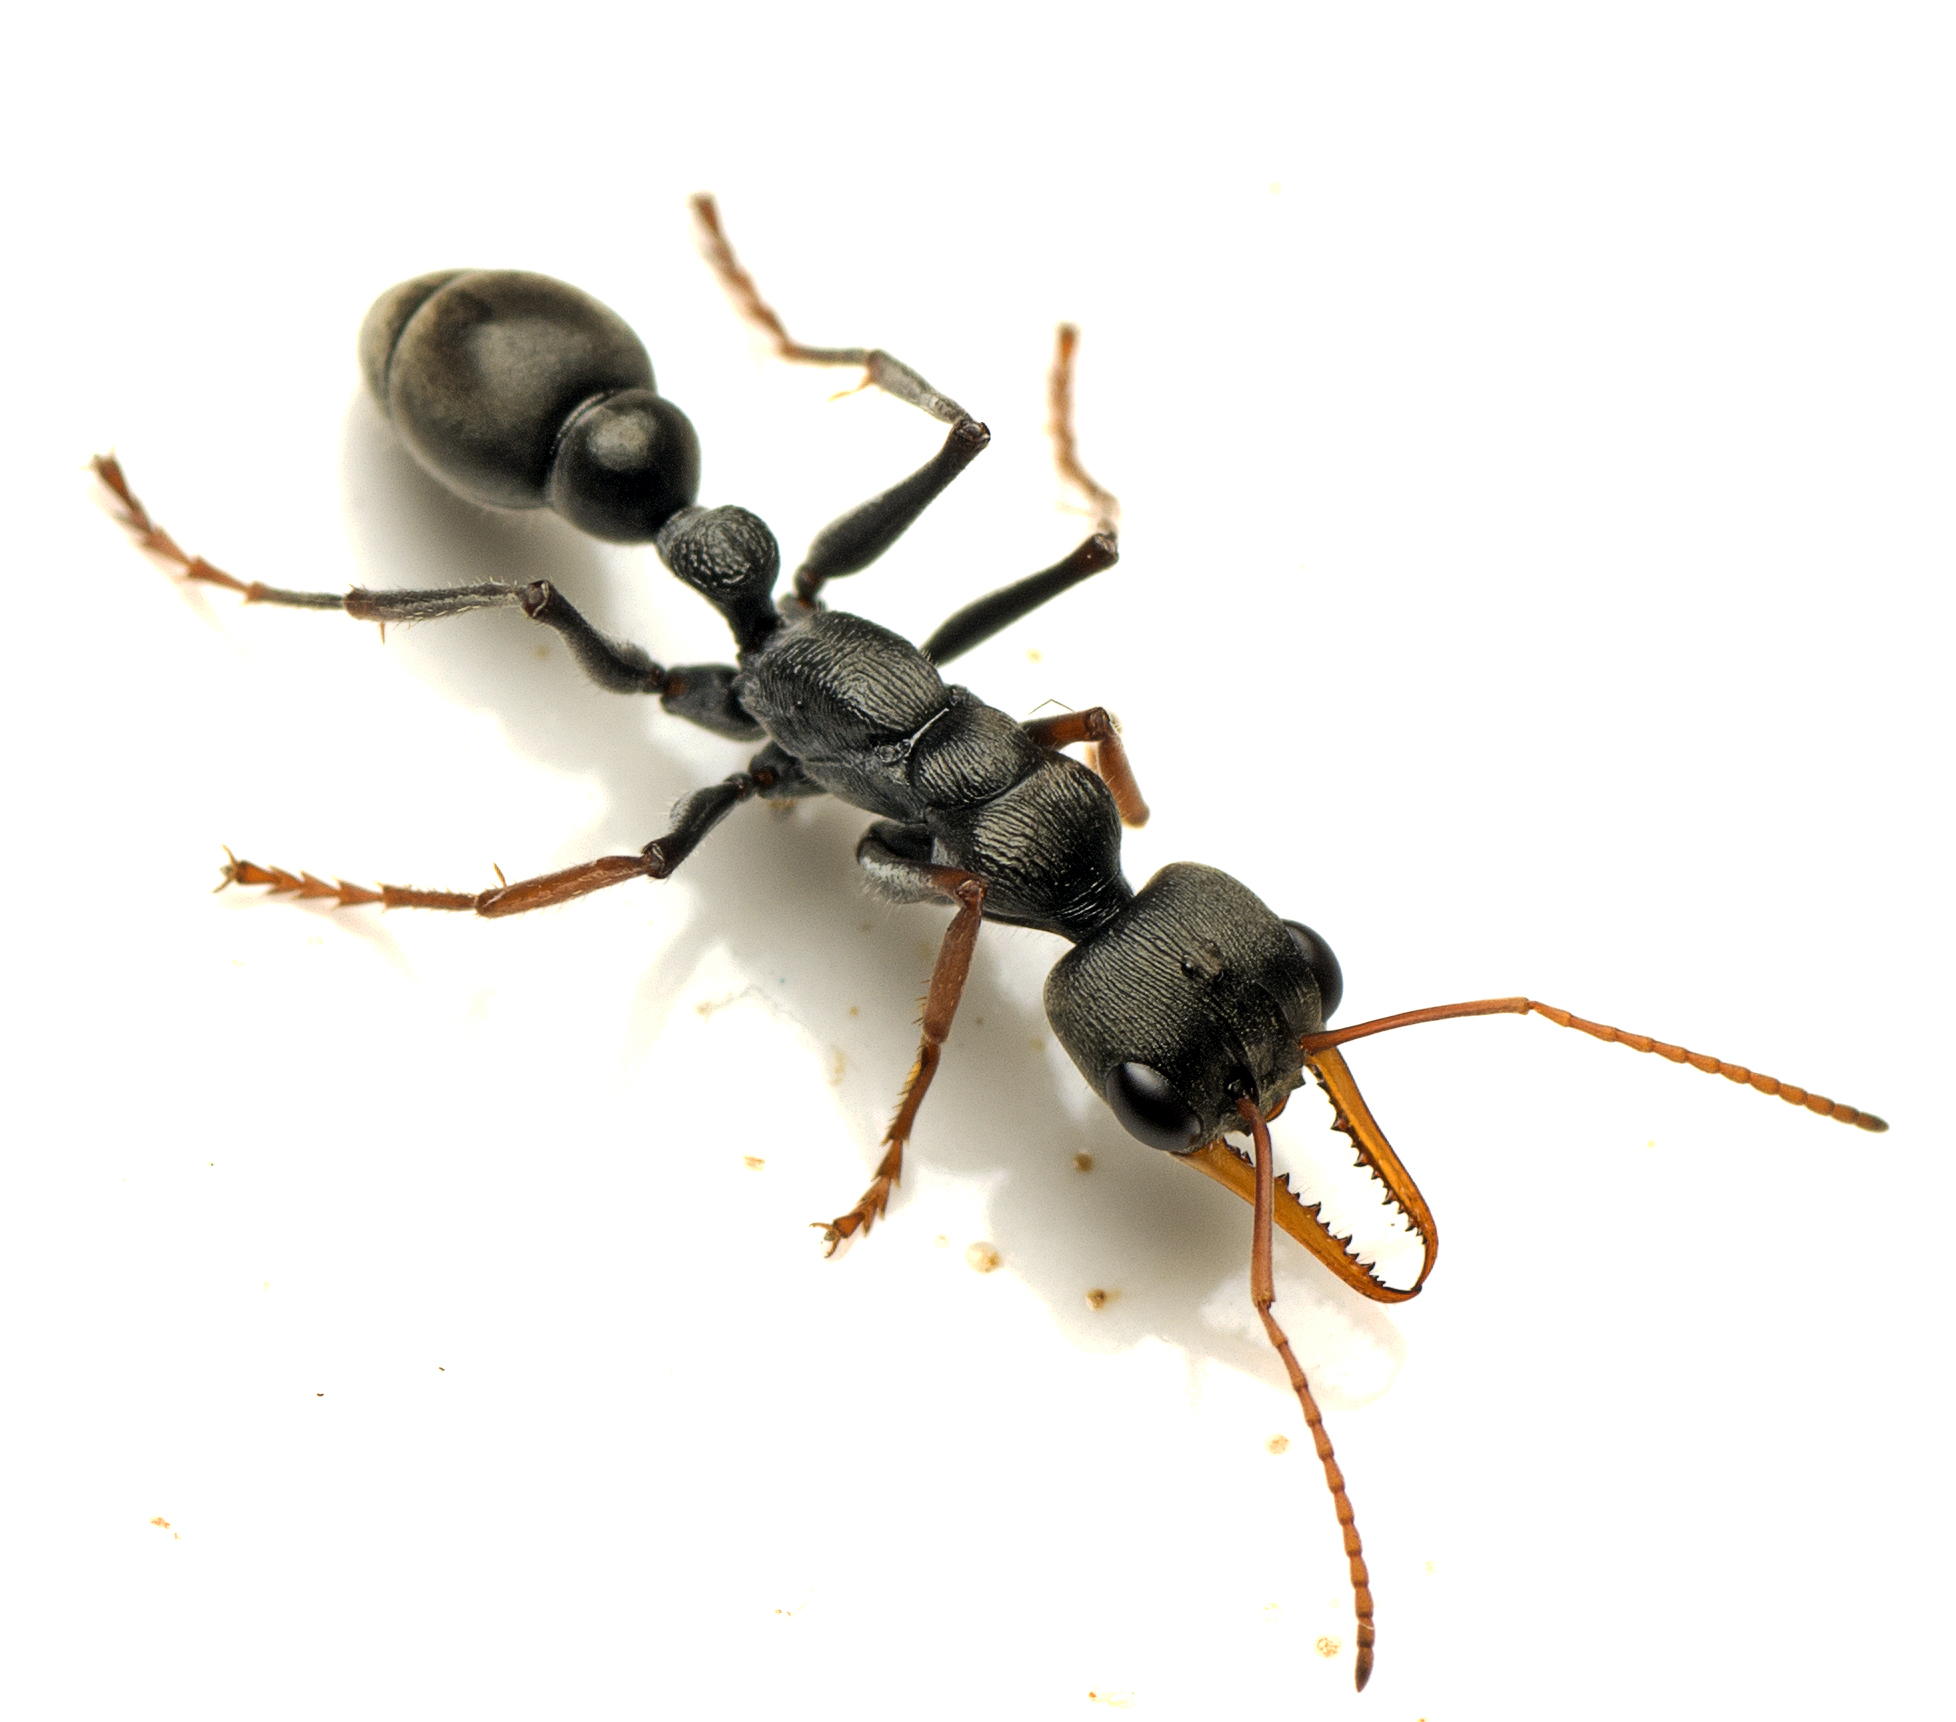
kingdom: Animalia
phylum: Arthropoda
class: Insecta
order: Hymenoptera
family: Formicidae
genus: Myrmecia
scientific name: Myrmecia croslandi
